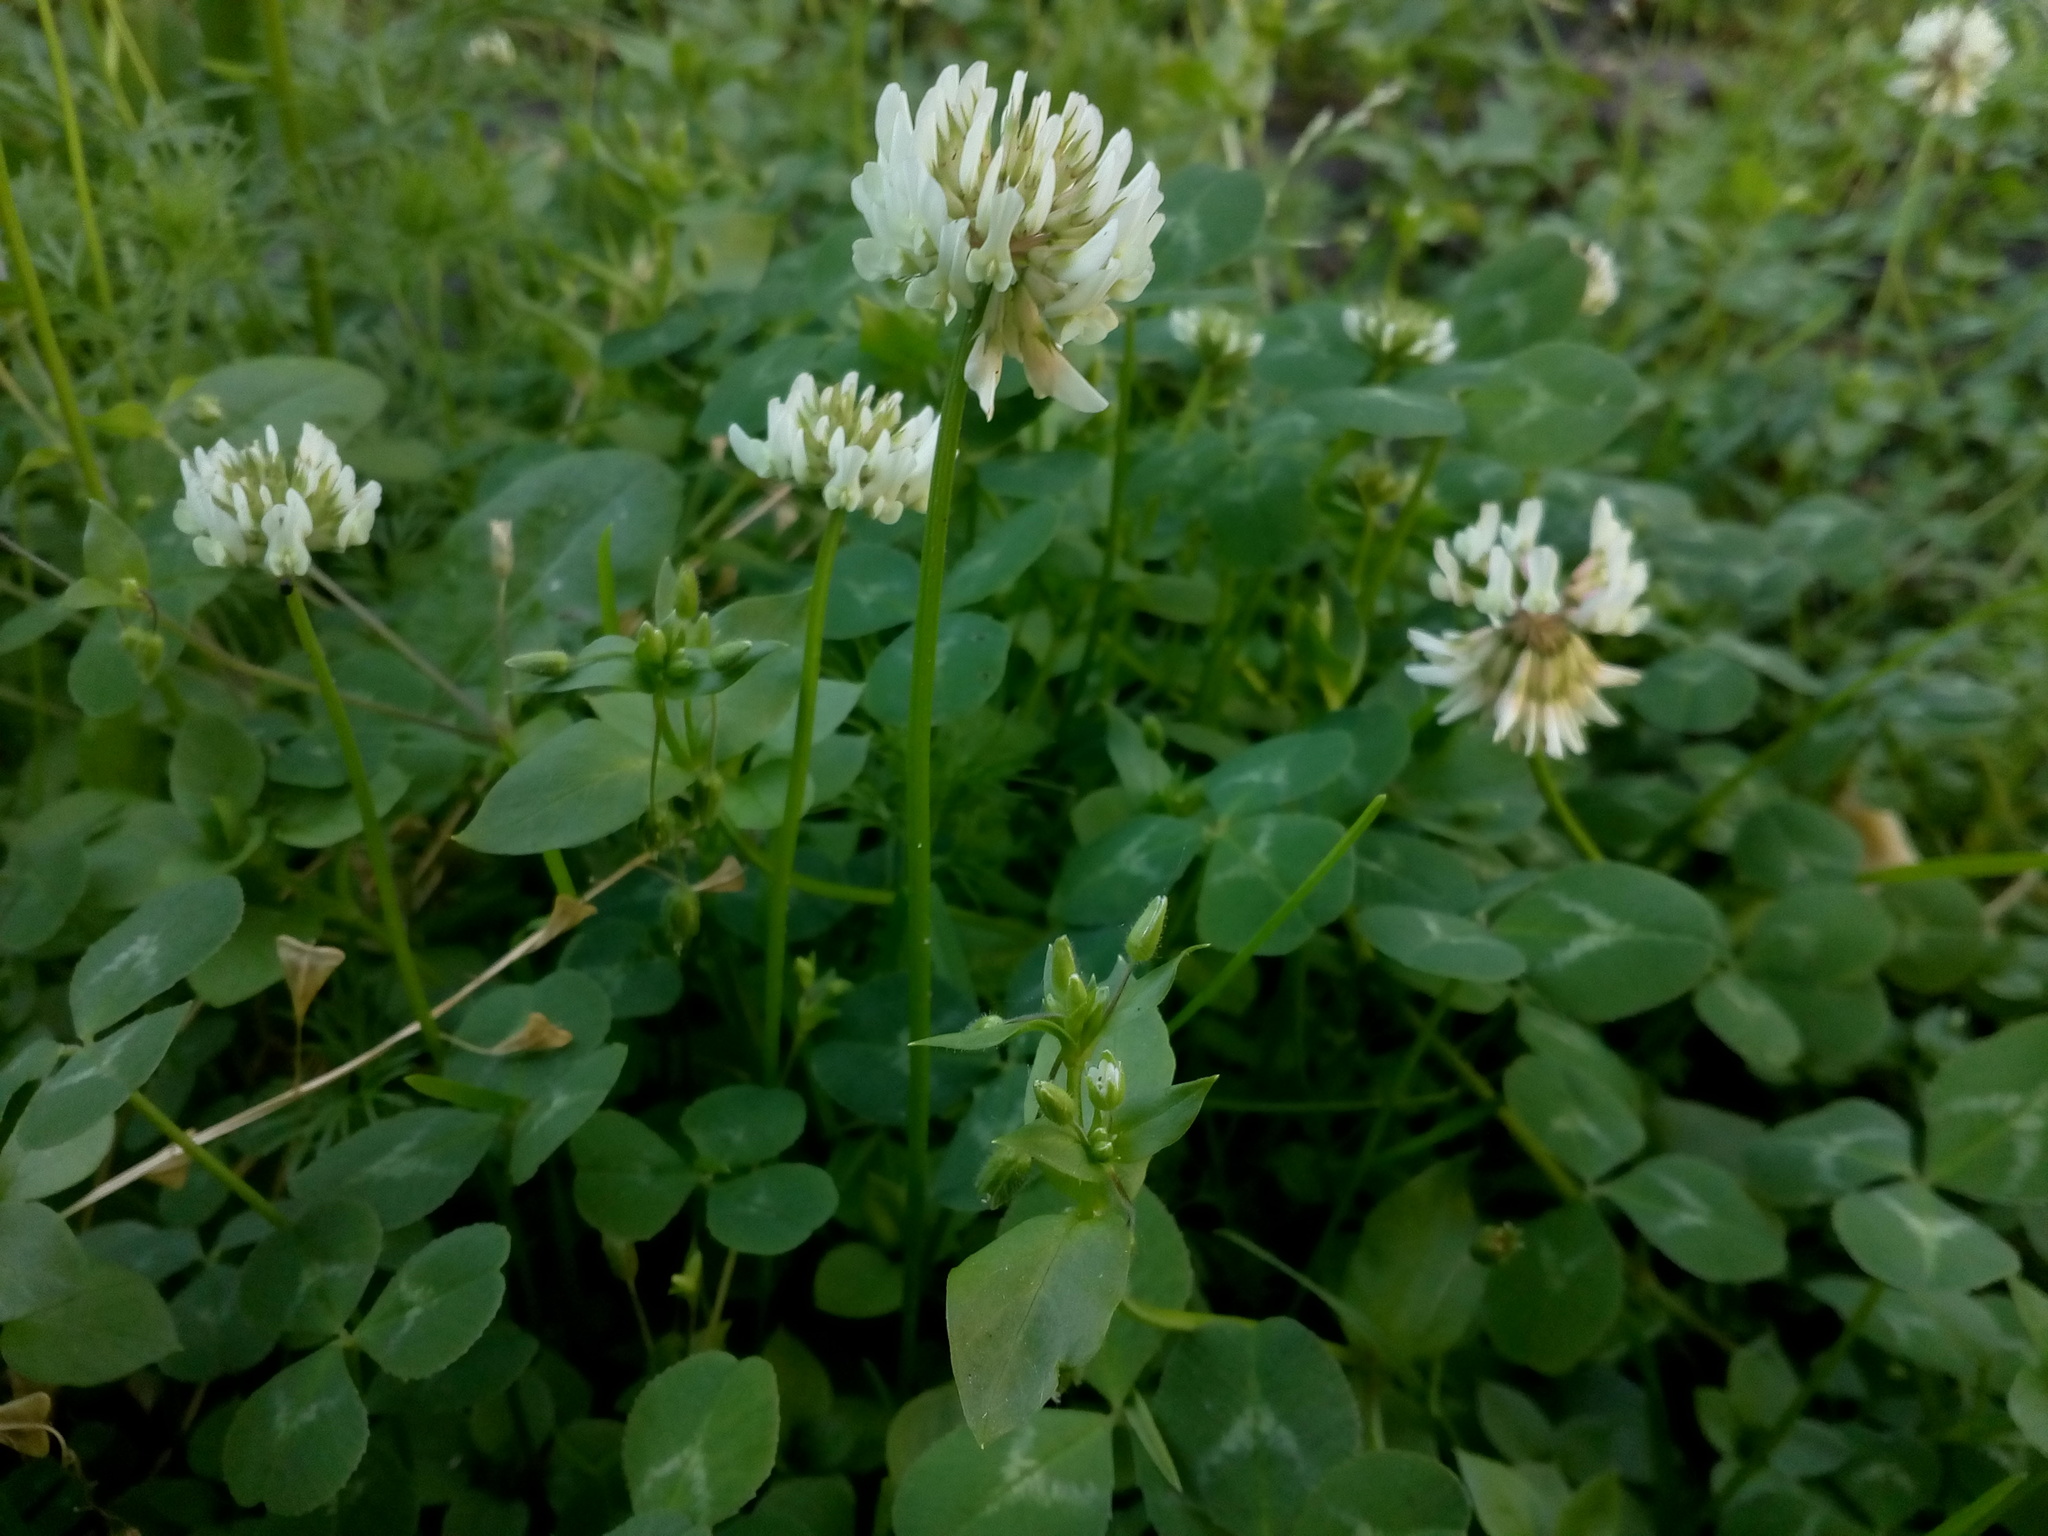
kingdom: Plantae
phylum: Tracheophyta
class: Magnoliopsida
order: Fabales
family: Fabaceae
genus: Trifolium
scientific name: Trifolium repens
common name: White clover
